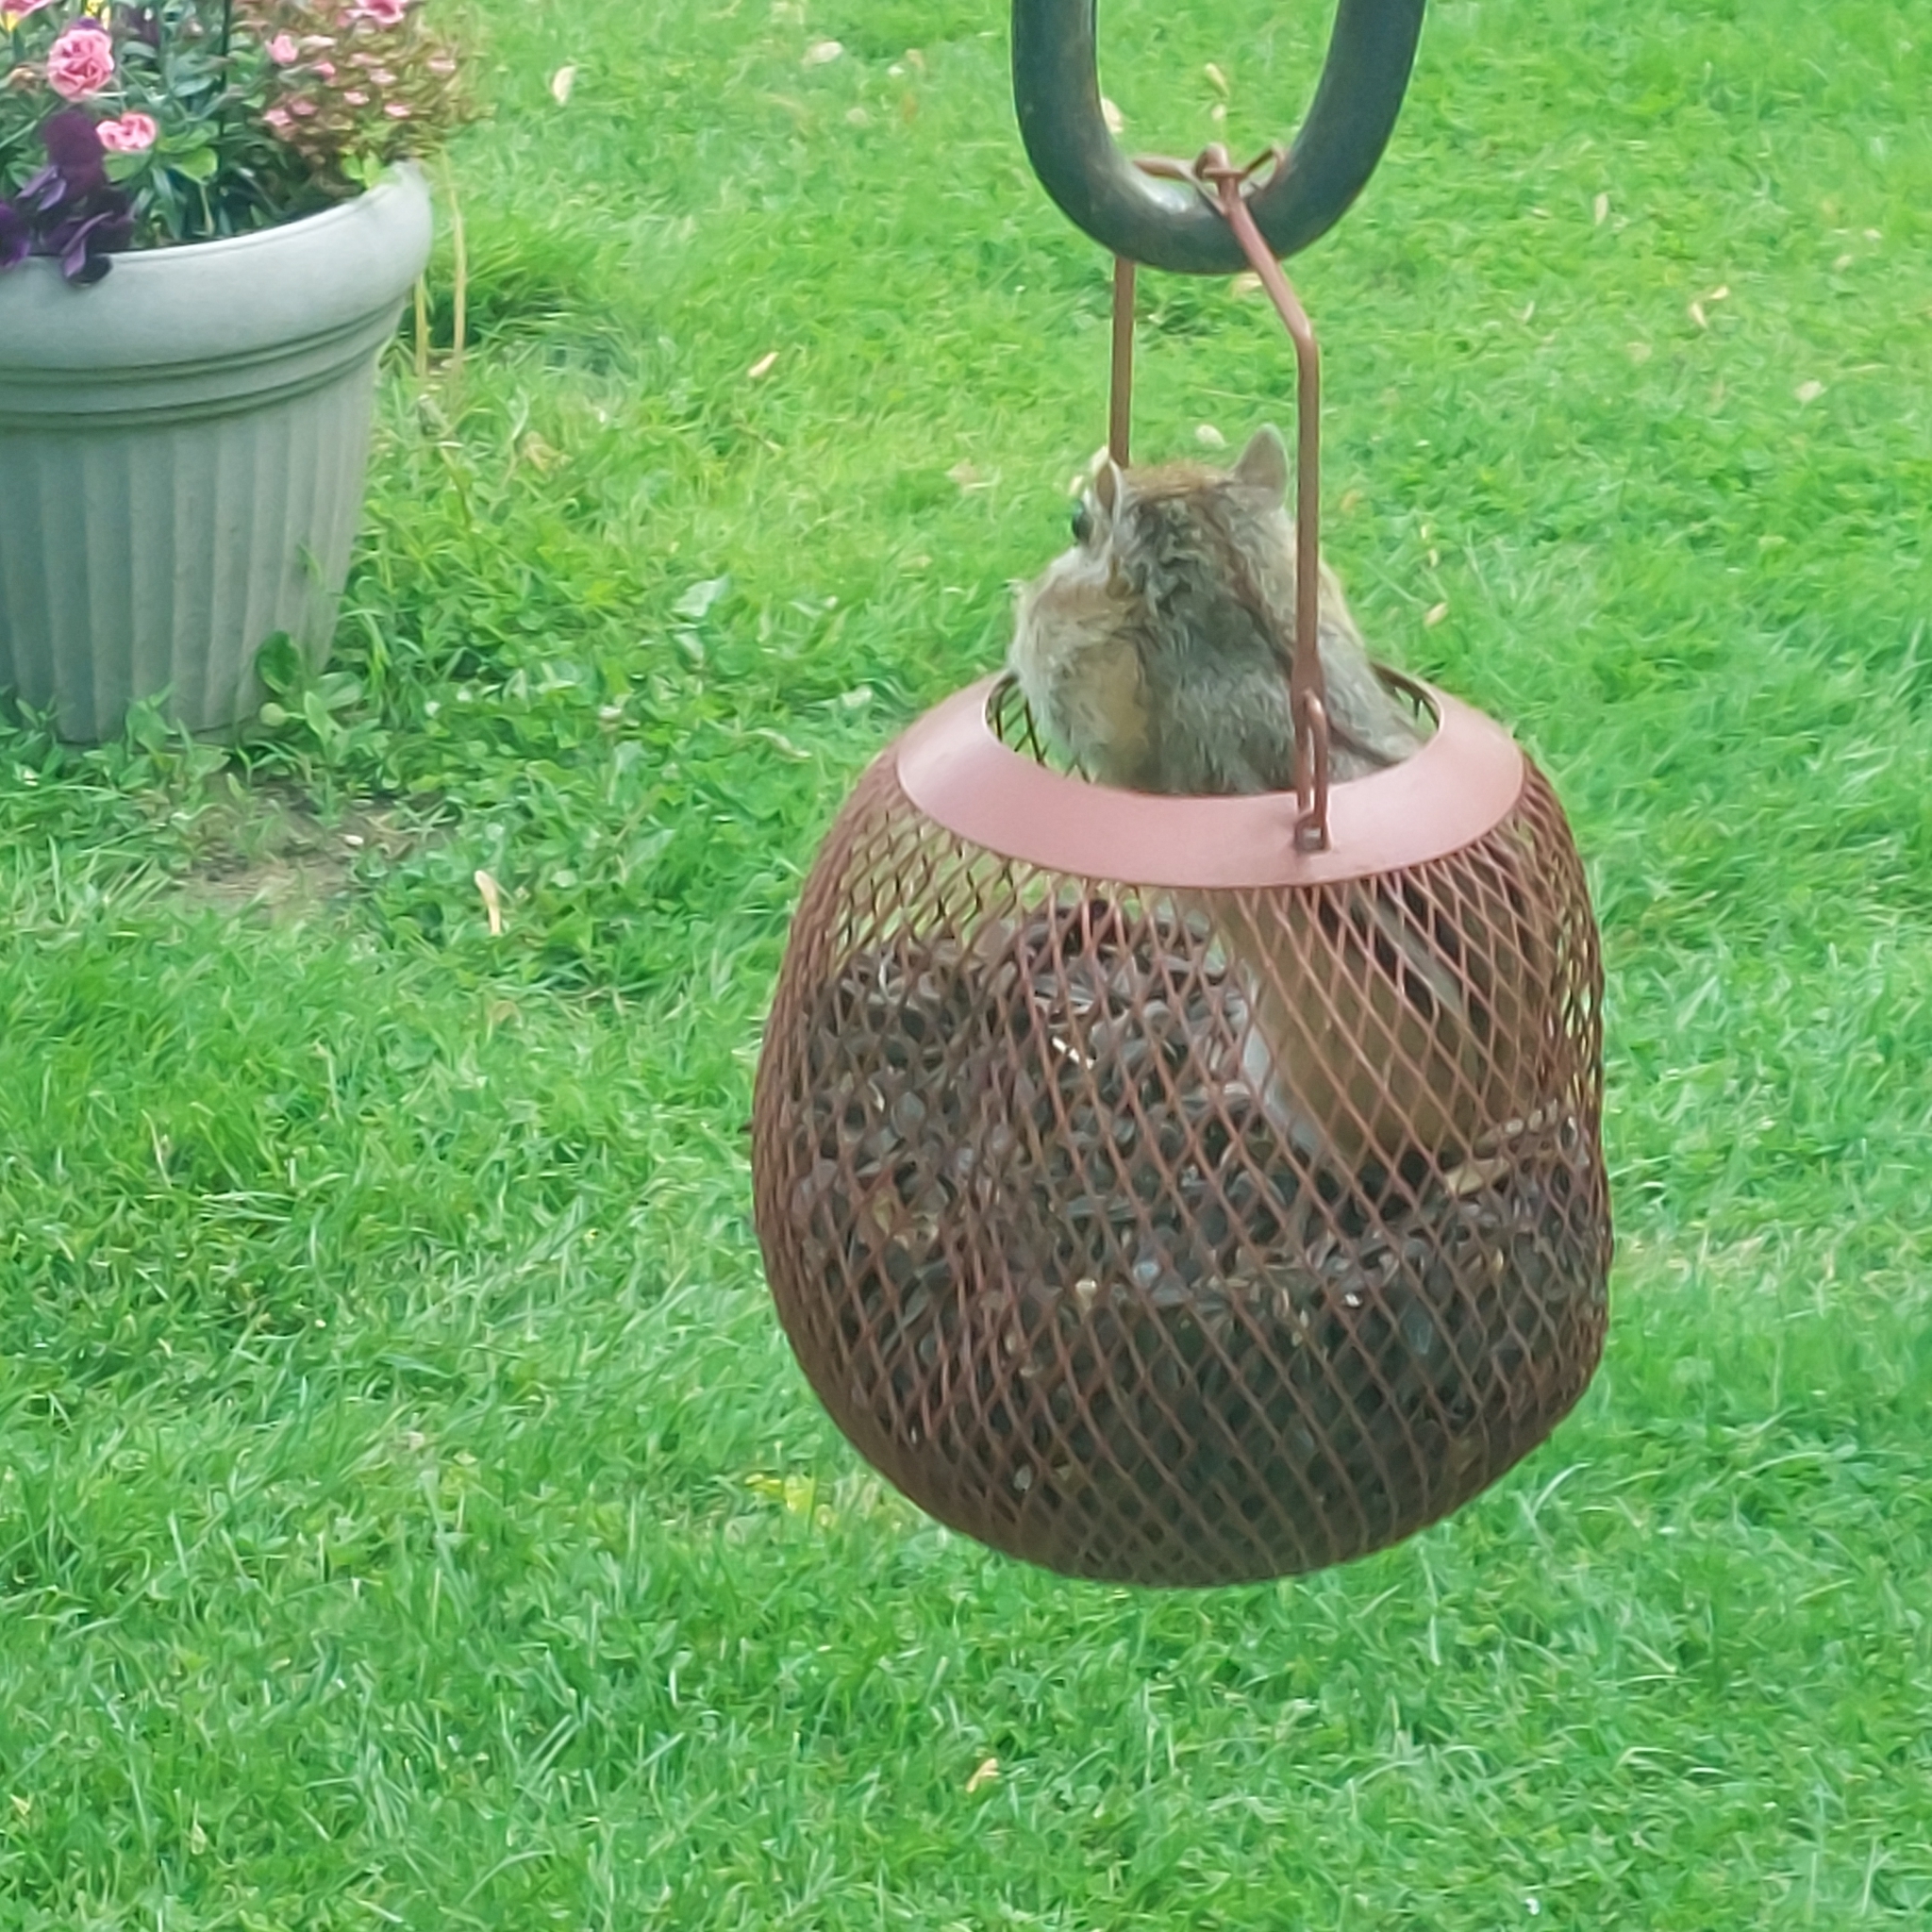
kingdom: Animalia
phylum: Chordata
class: Mammalia
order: Rodentia
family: Sciuridae
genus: Tamias
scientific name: Tamias striatus
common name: Eastern chipmunk
